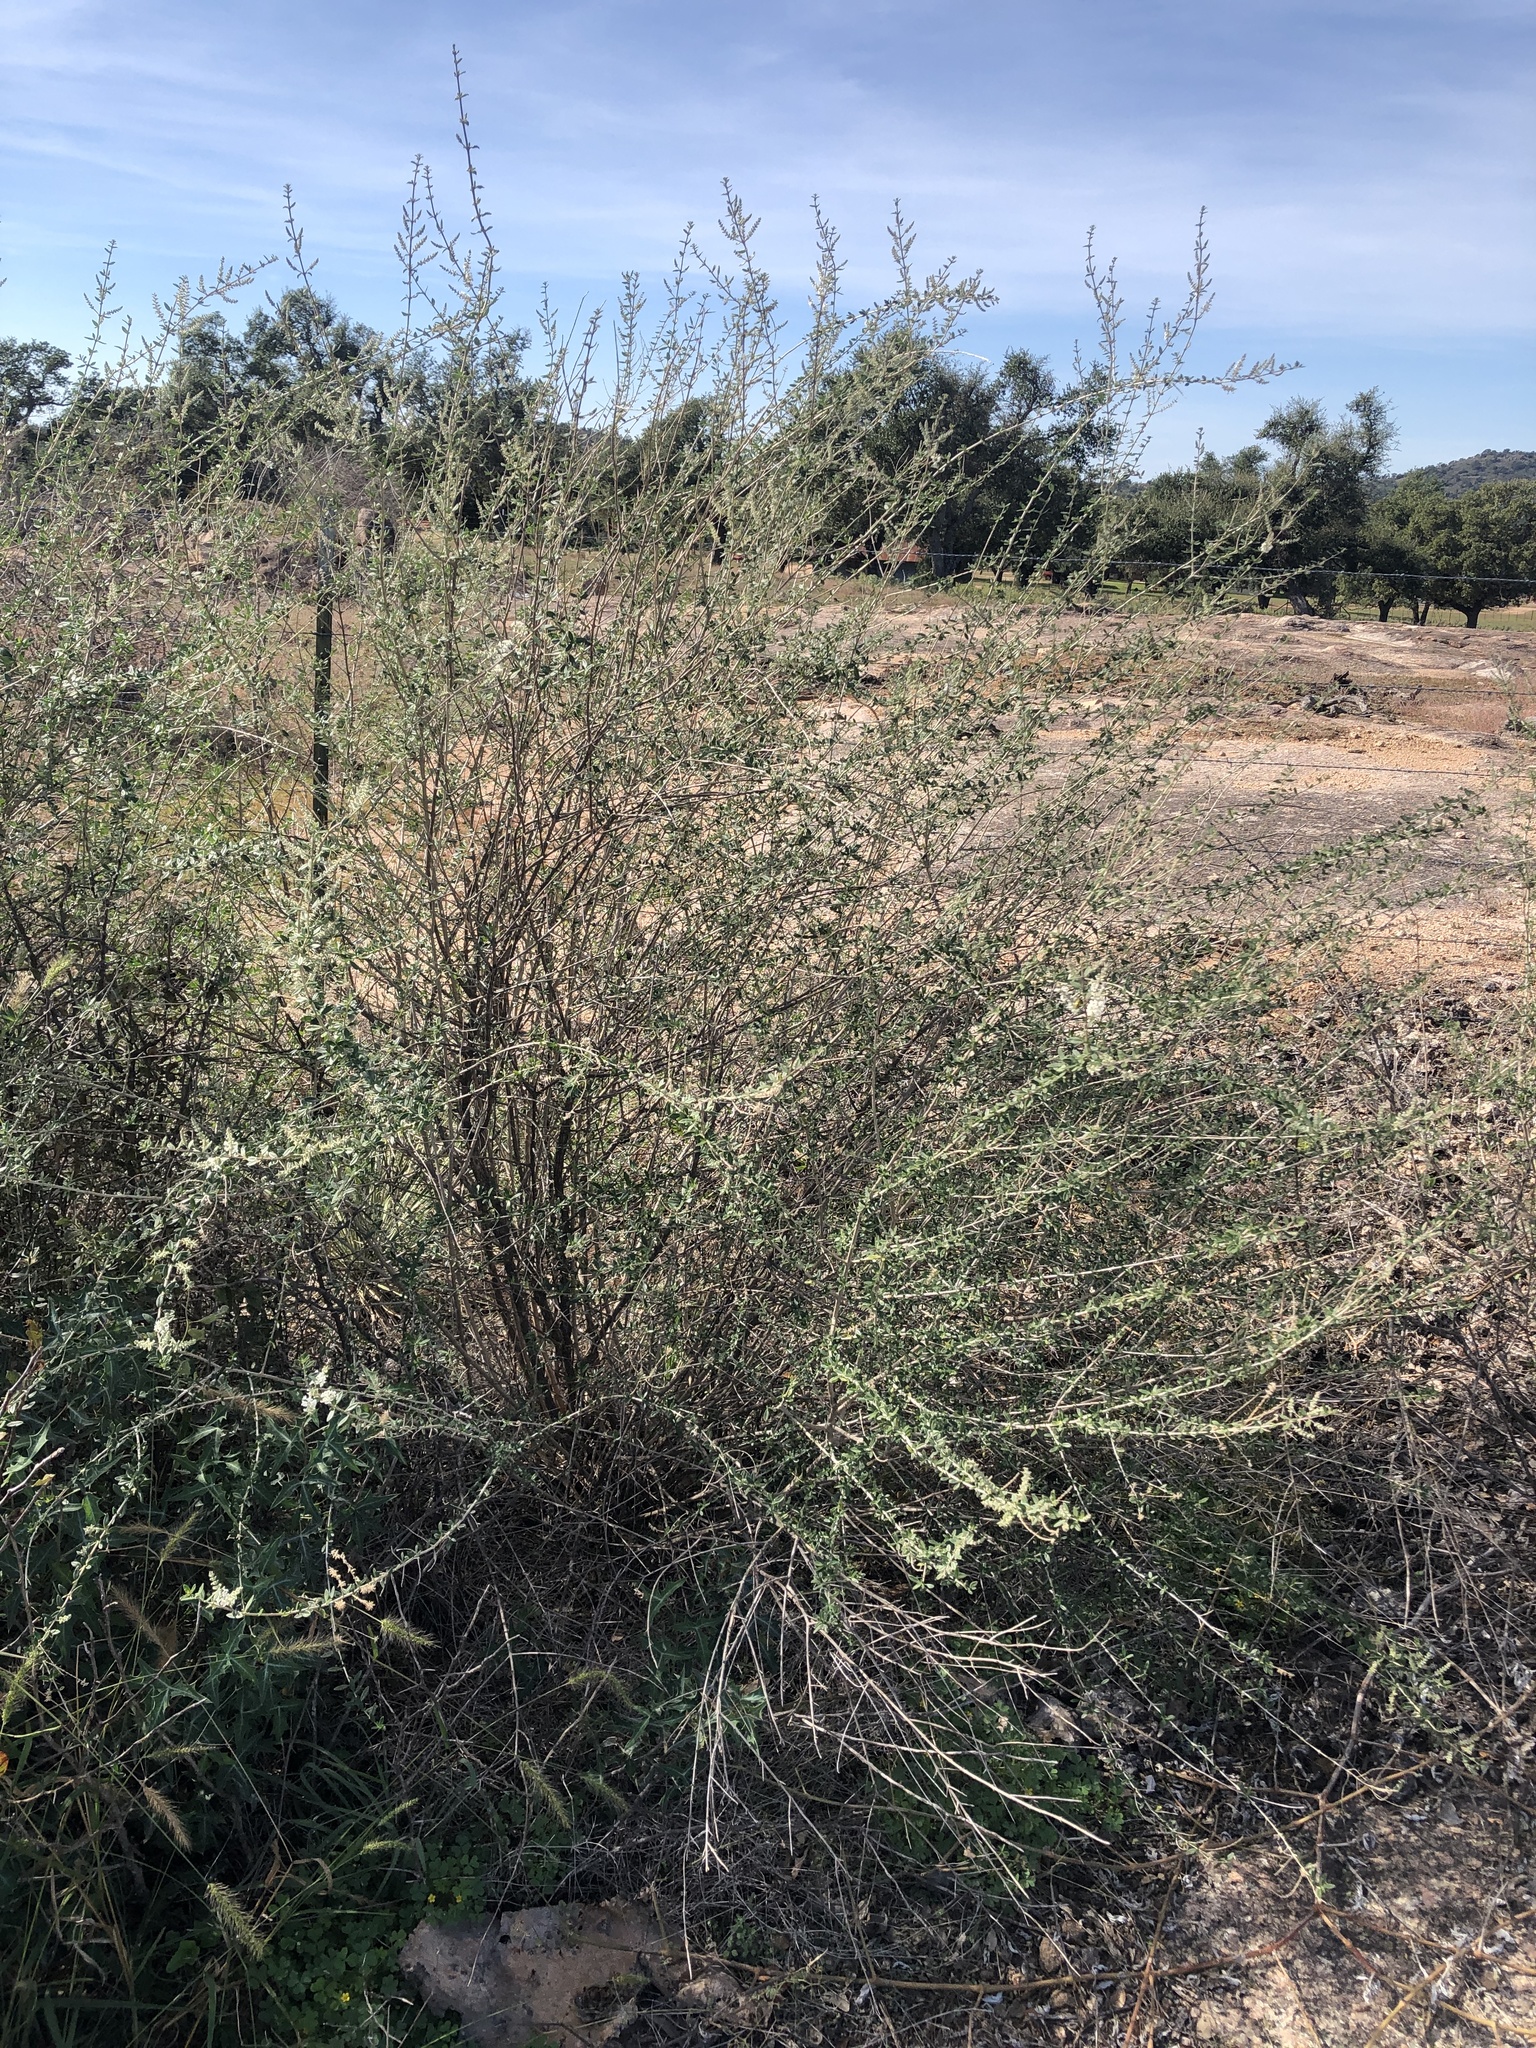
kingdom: Plantae
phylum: Tracheophyta
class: Magnoliopsida
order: Lamiales
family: Verbenaceae
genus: Aloysia
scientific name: Aloysia gratissima
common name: Common bee-brush
